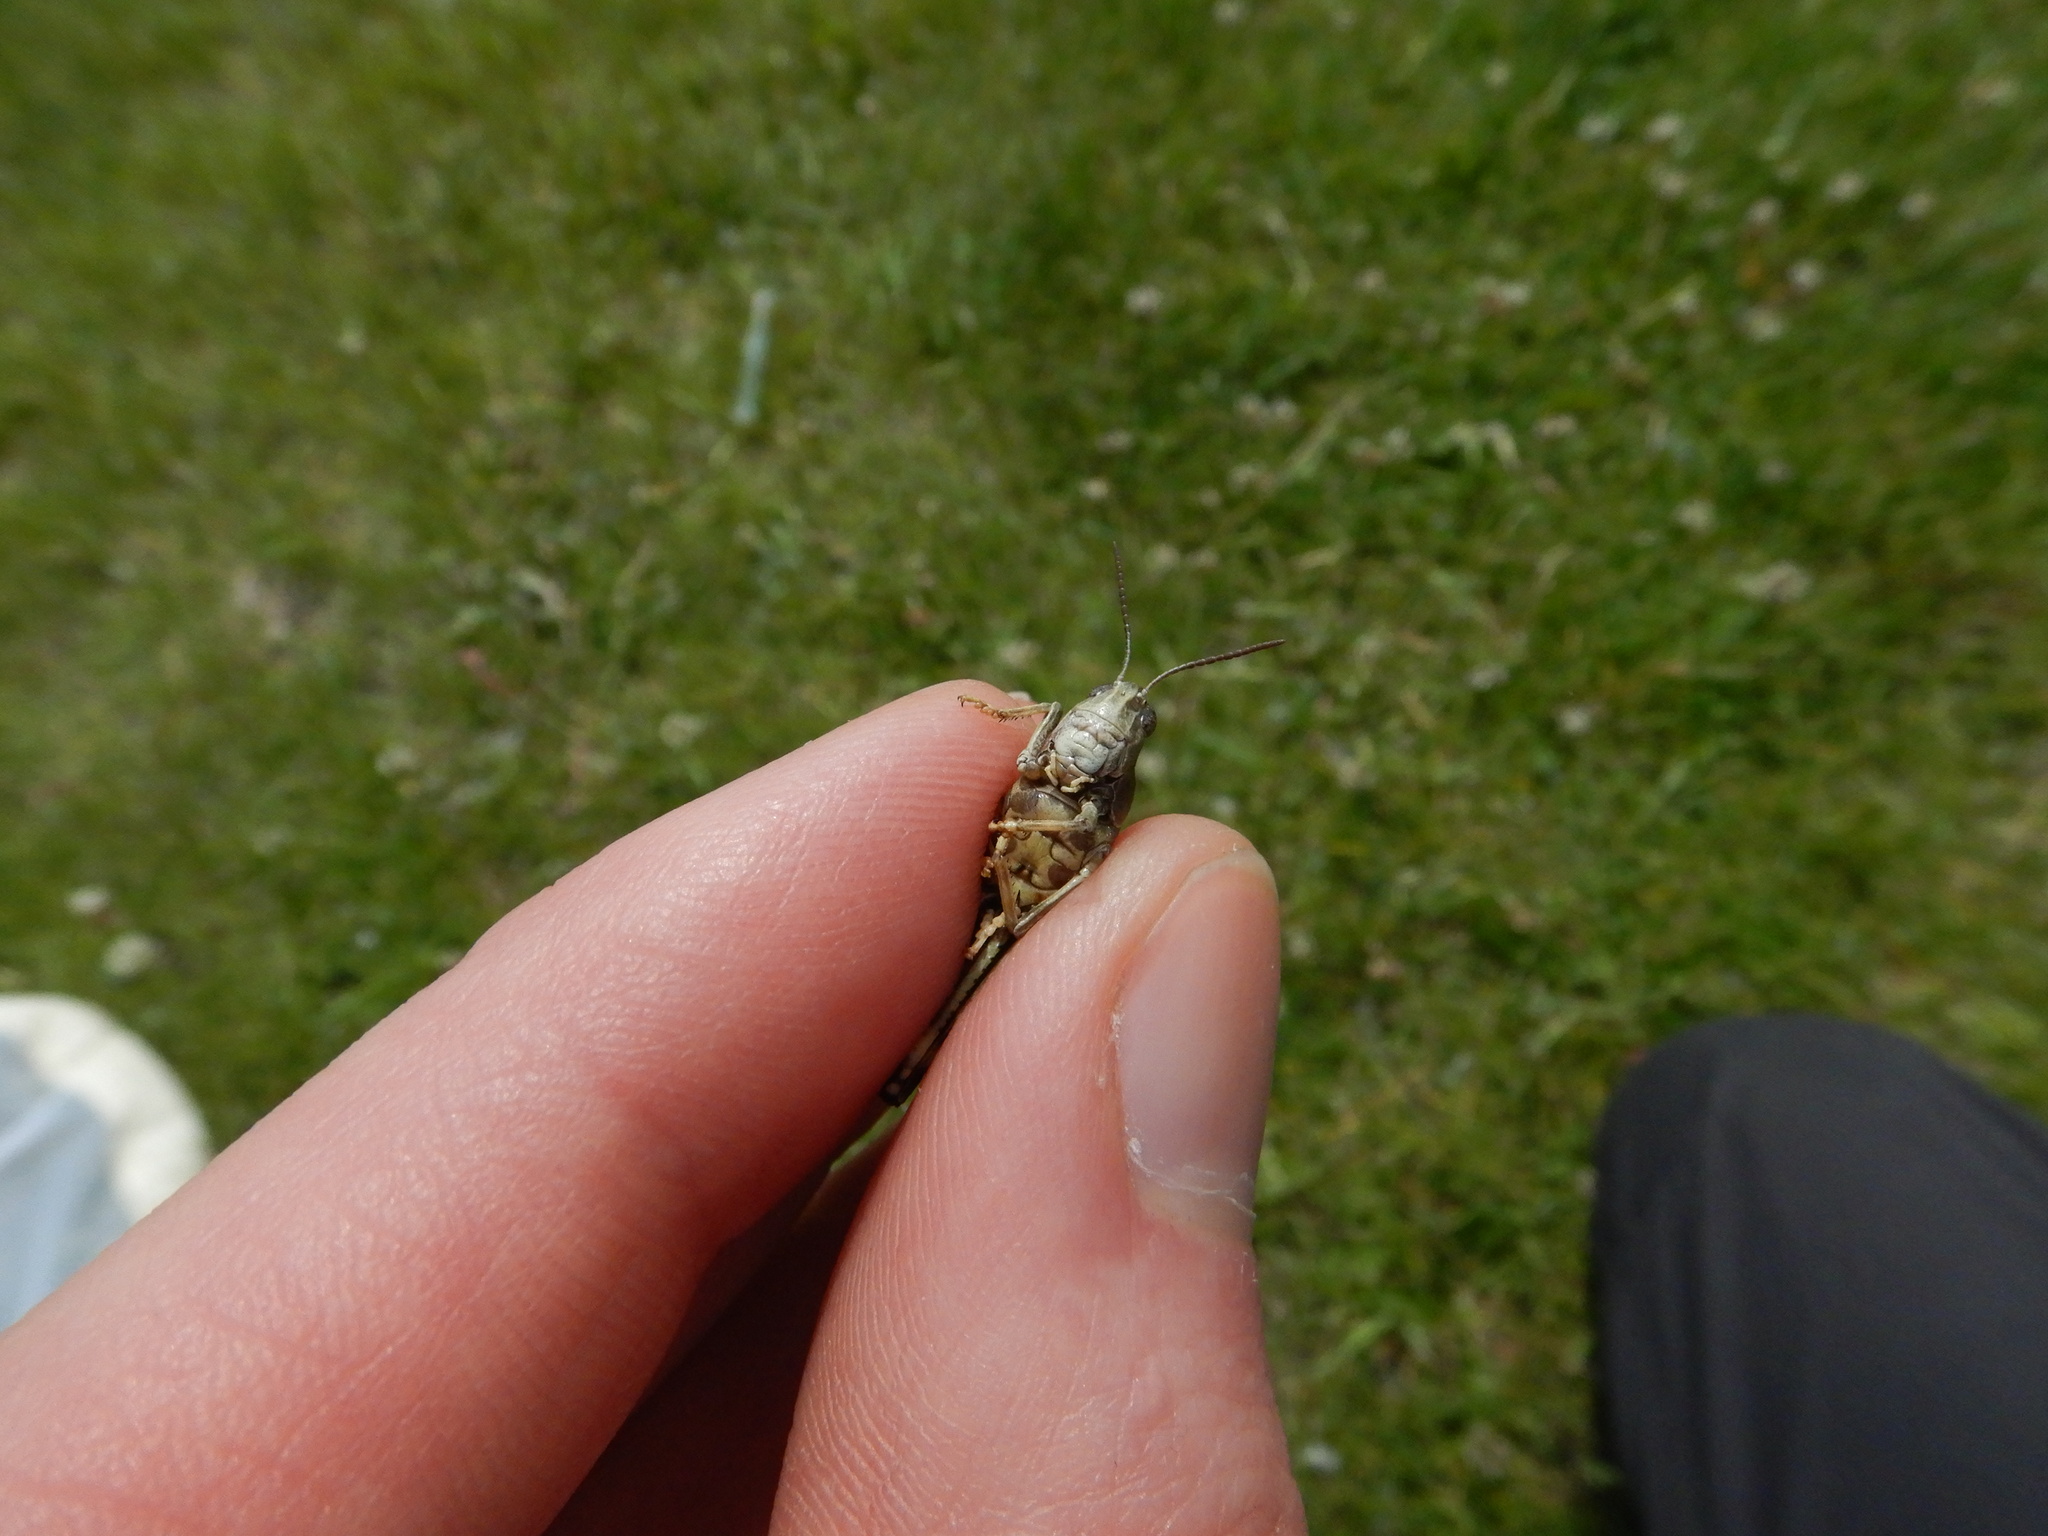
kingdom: Animalia
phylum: Arthropoda
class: Insecta
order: Orthoptera
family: Acrididae
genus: Arphia
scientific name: Arphia conspersa
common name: Speckle-winged rangeland grasshopper
